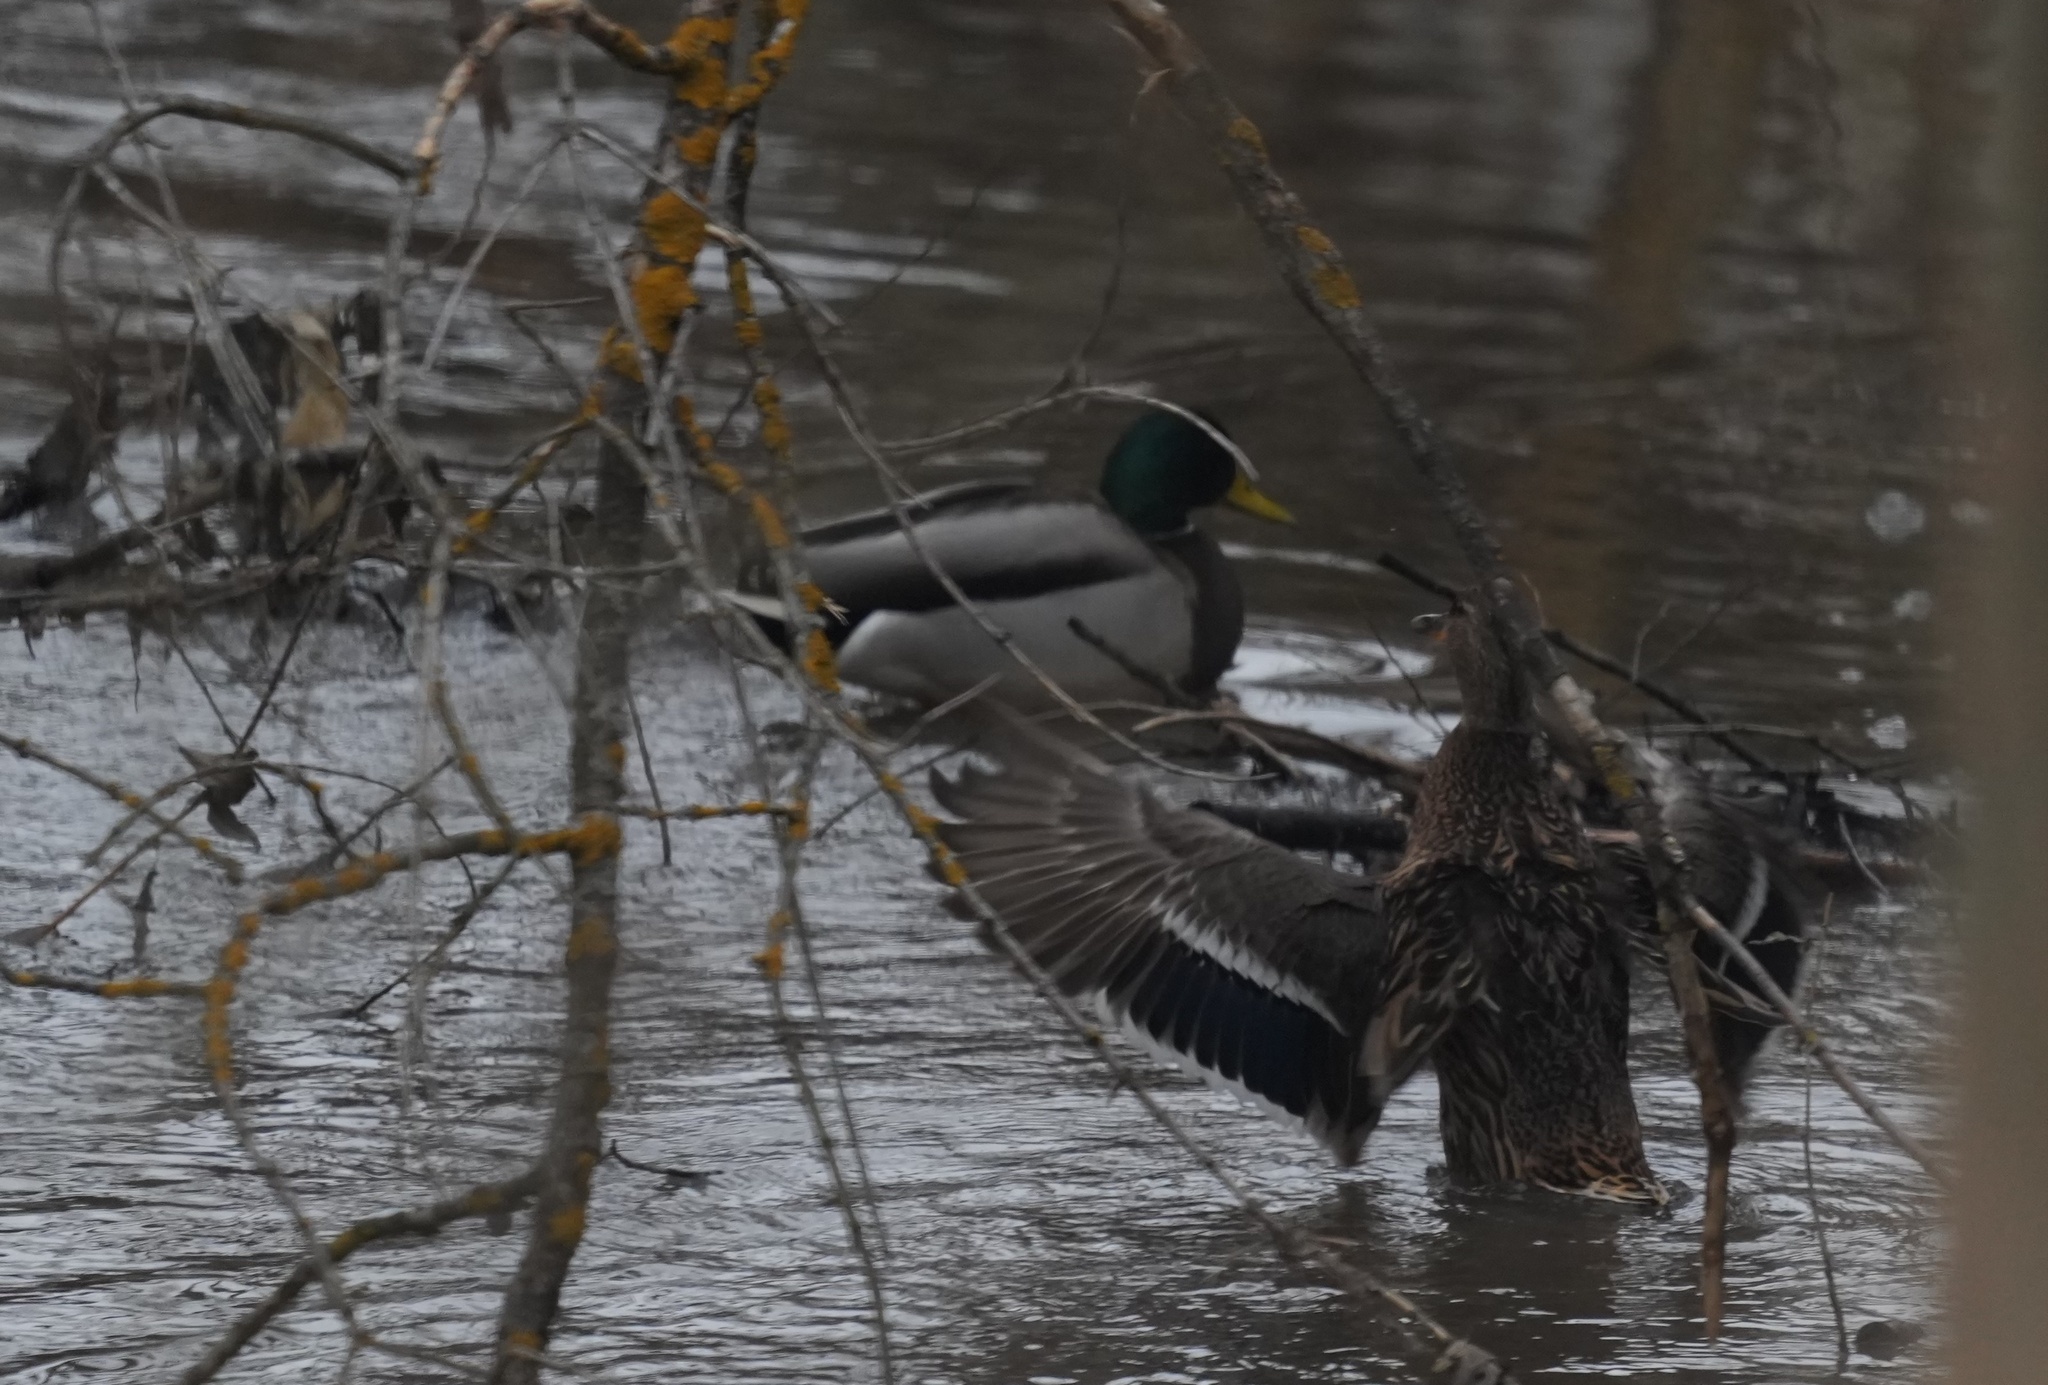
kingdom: Animalia
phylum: Chordata
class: Aves
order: Anseriformes
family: Anatidae
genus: Anas
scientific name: Anas platyrhynchos
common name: Mallard
